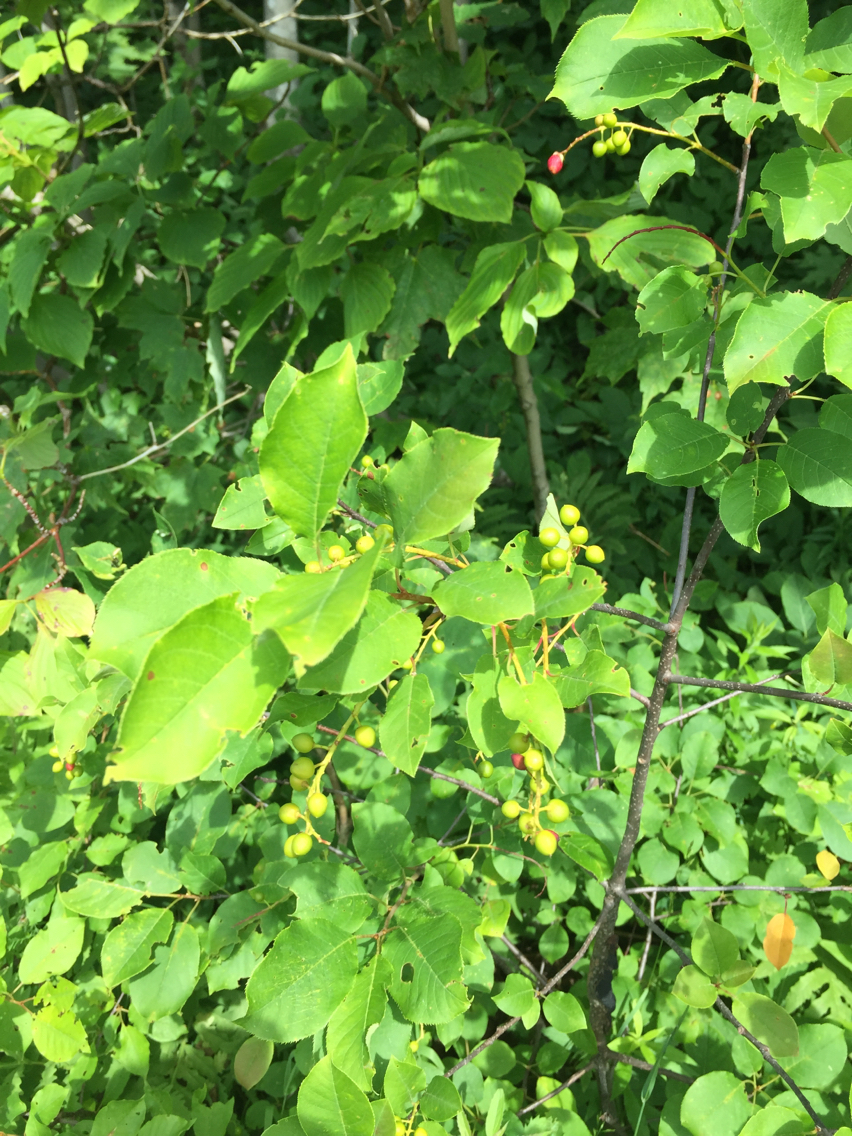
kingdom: Plantae
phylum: Tracheophyta
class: Magnoliopsida
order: Rosales
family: Rosaceae
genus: Prunus
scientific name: Prunus virginiana
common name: Chokecherry
